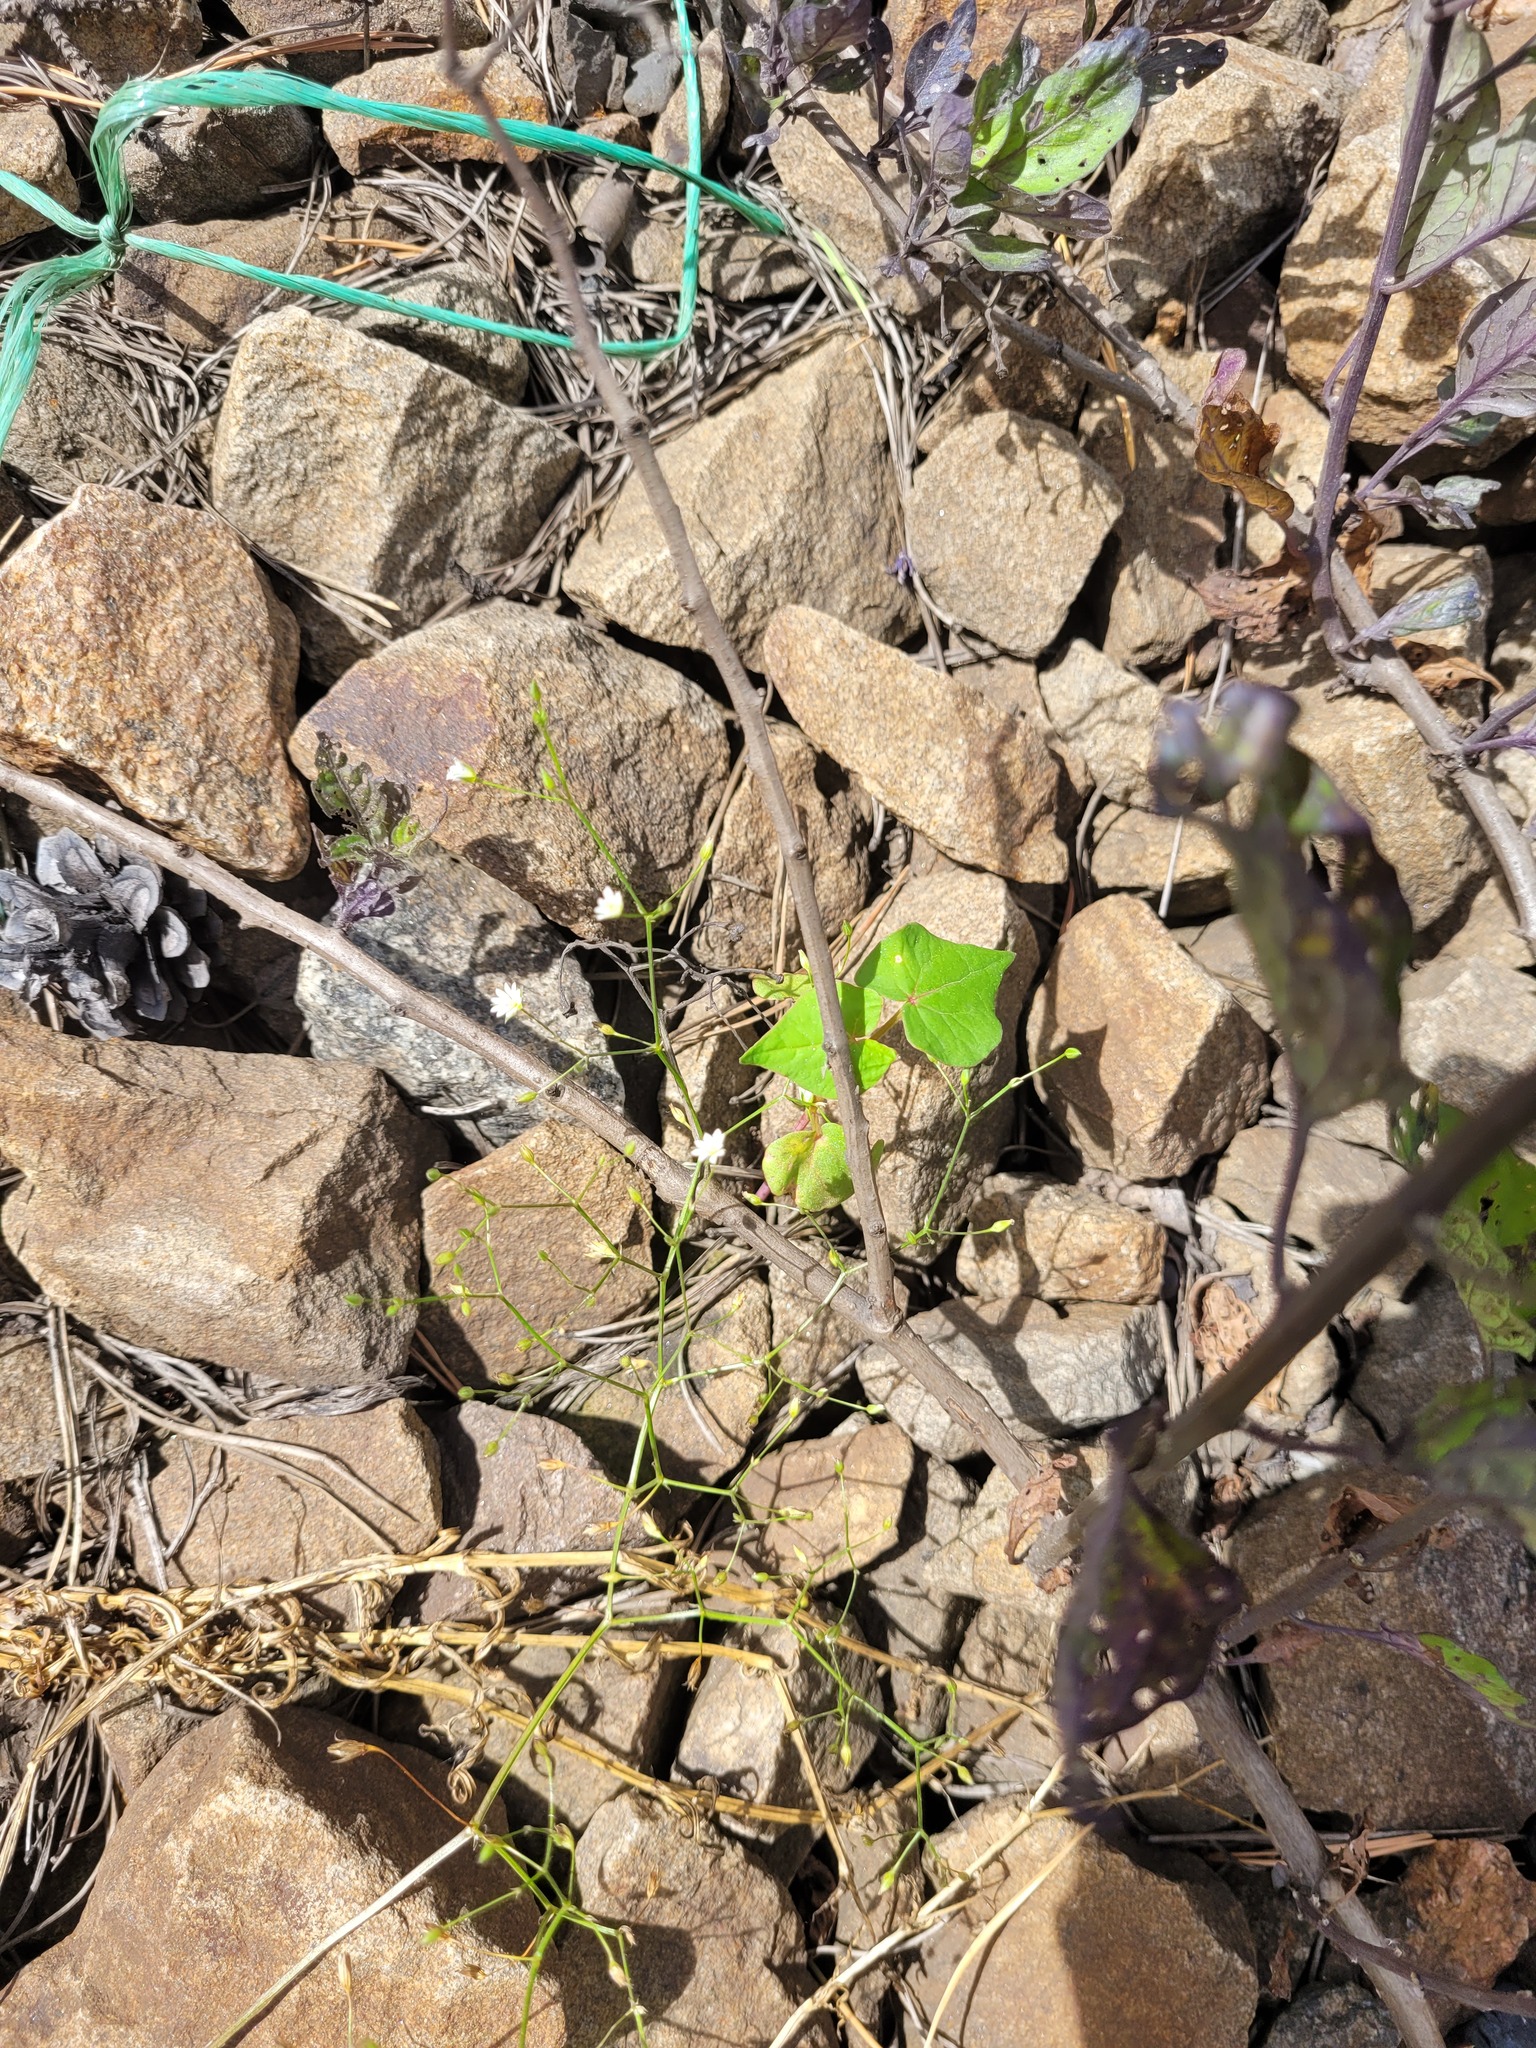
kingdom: Plantae
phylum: Tracheophyta
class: Magnoliopsida
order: Caryophyllales
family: Caryophyllaceae
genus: Stellaria
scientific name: Stellaria graminea
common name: Grass-like starwort
